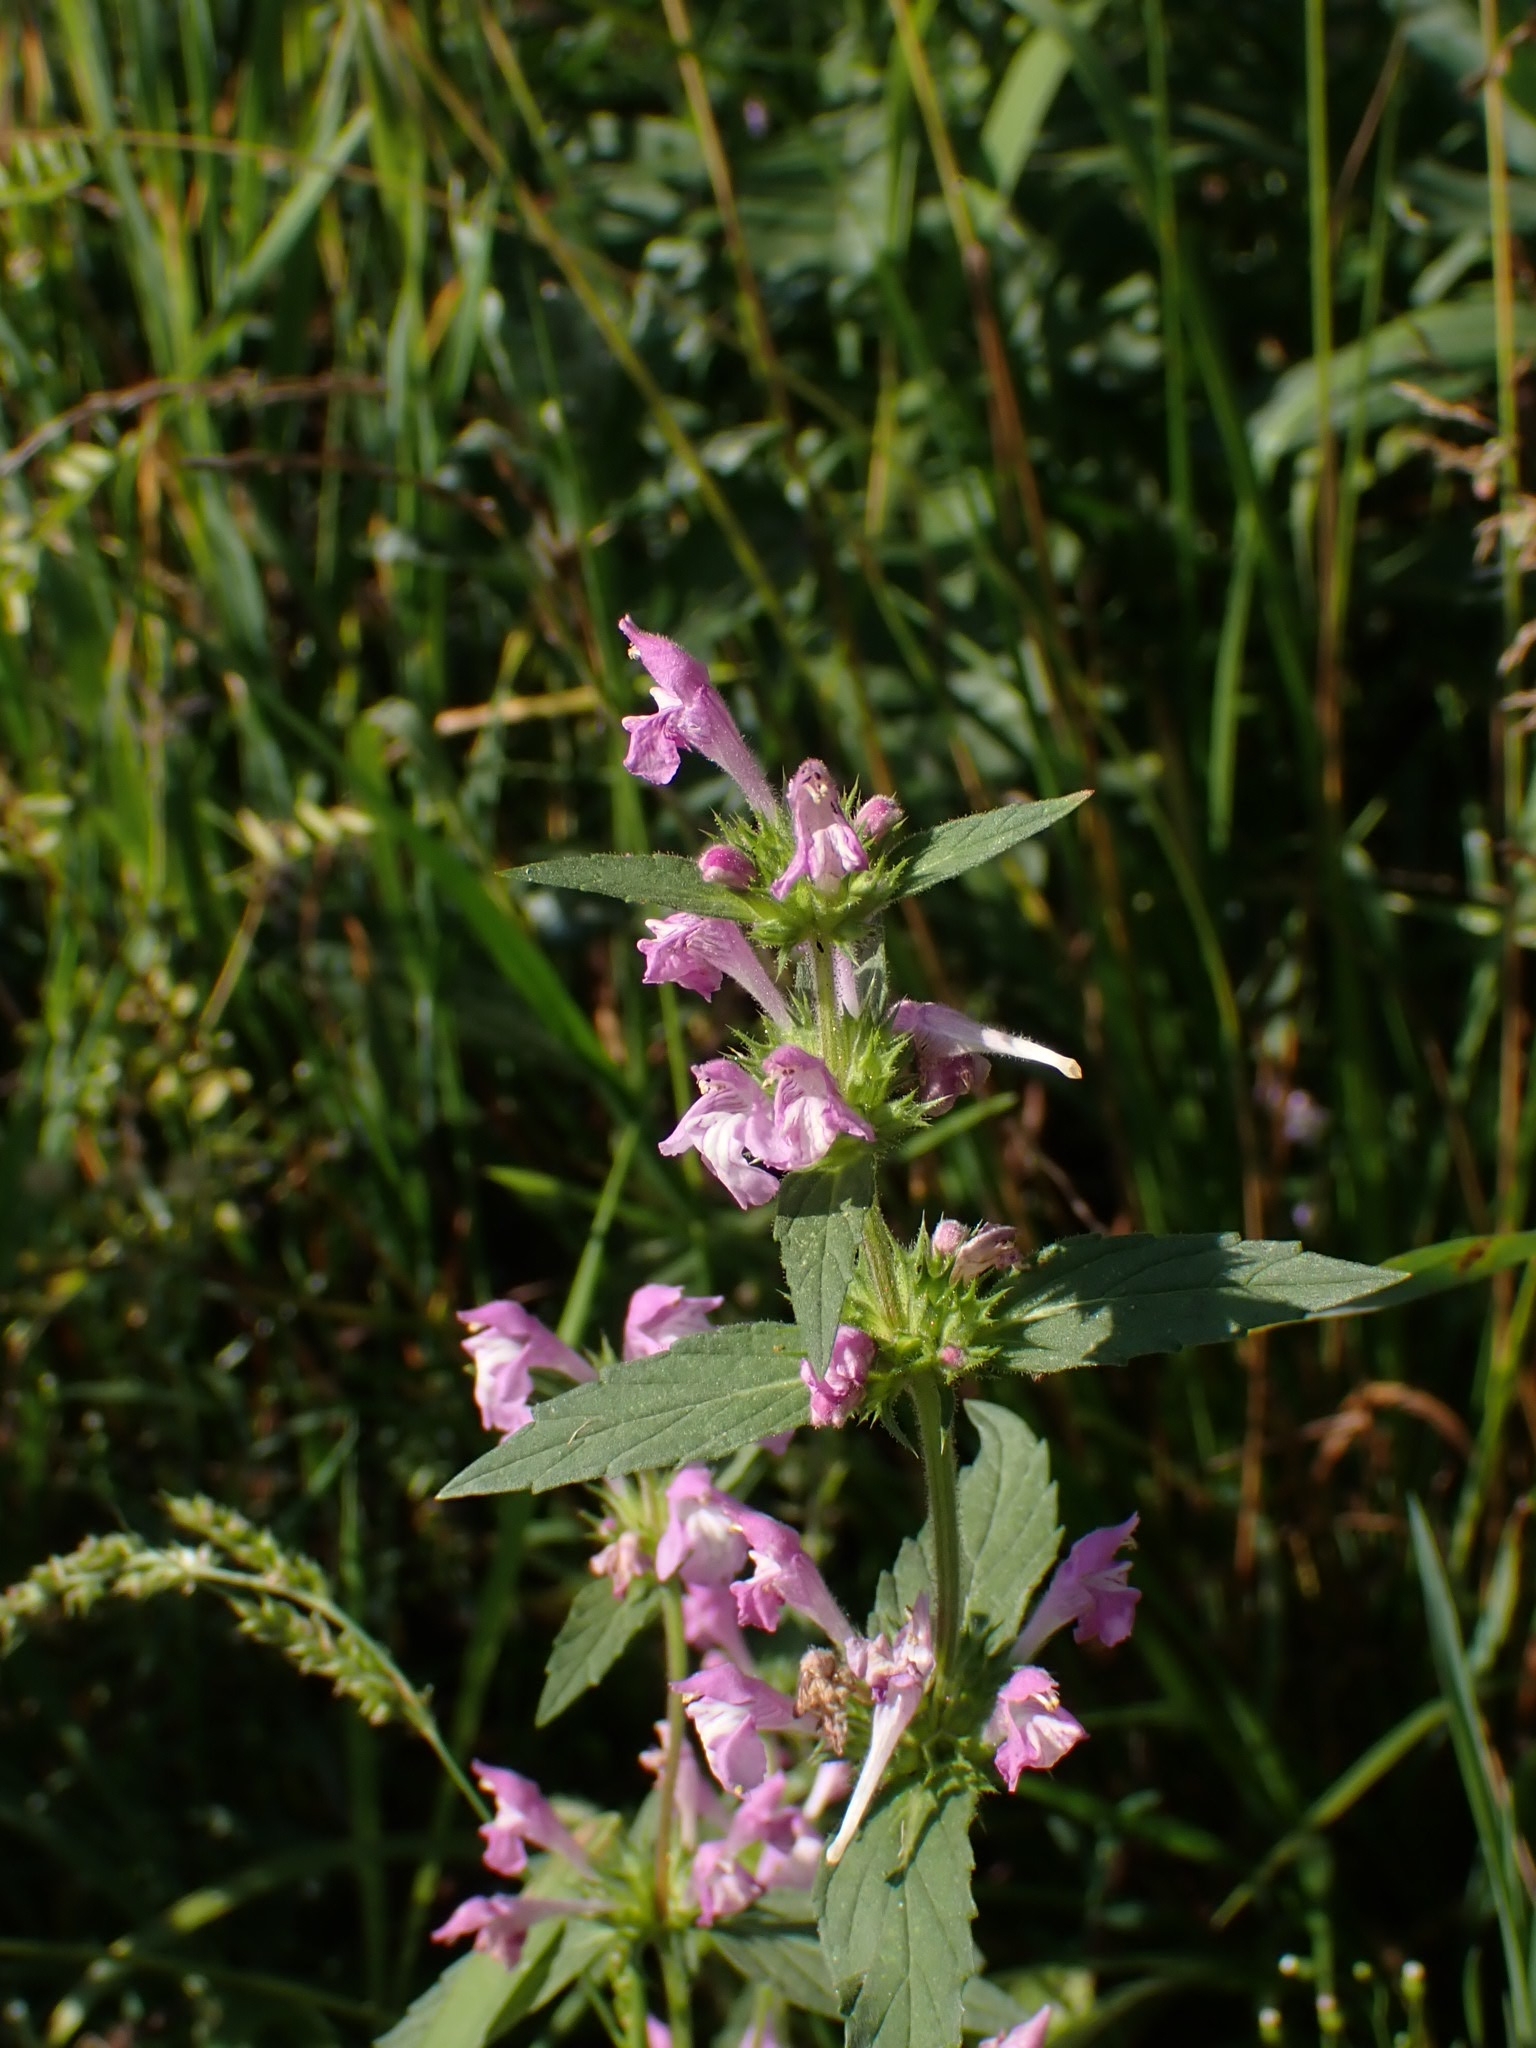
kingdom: Plantae
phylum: Tracheophyta
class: Magnoliopsida
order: Lamiales
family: Lamiaceae
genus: Galeopsis
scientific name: Galeopsis ladanum
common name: Broad-leaved hemp-nettle
